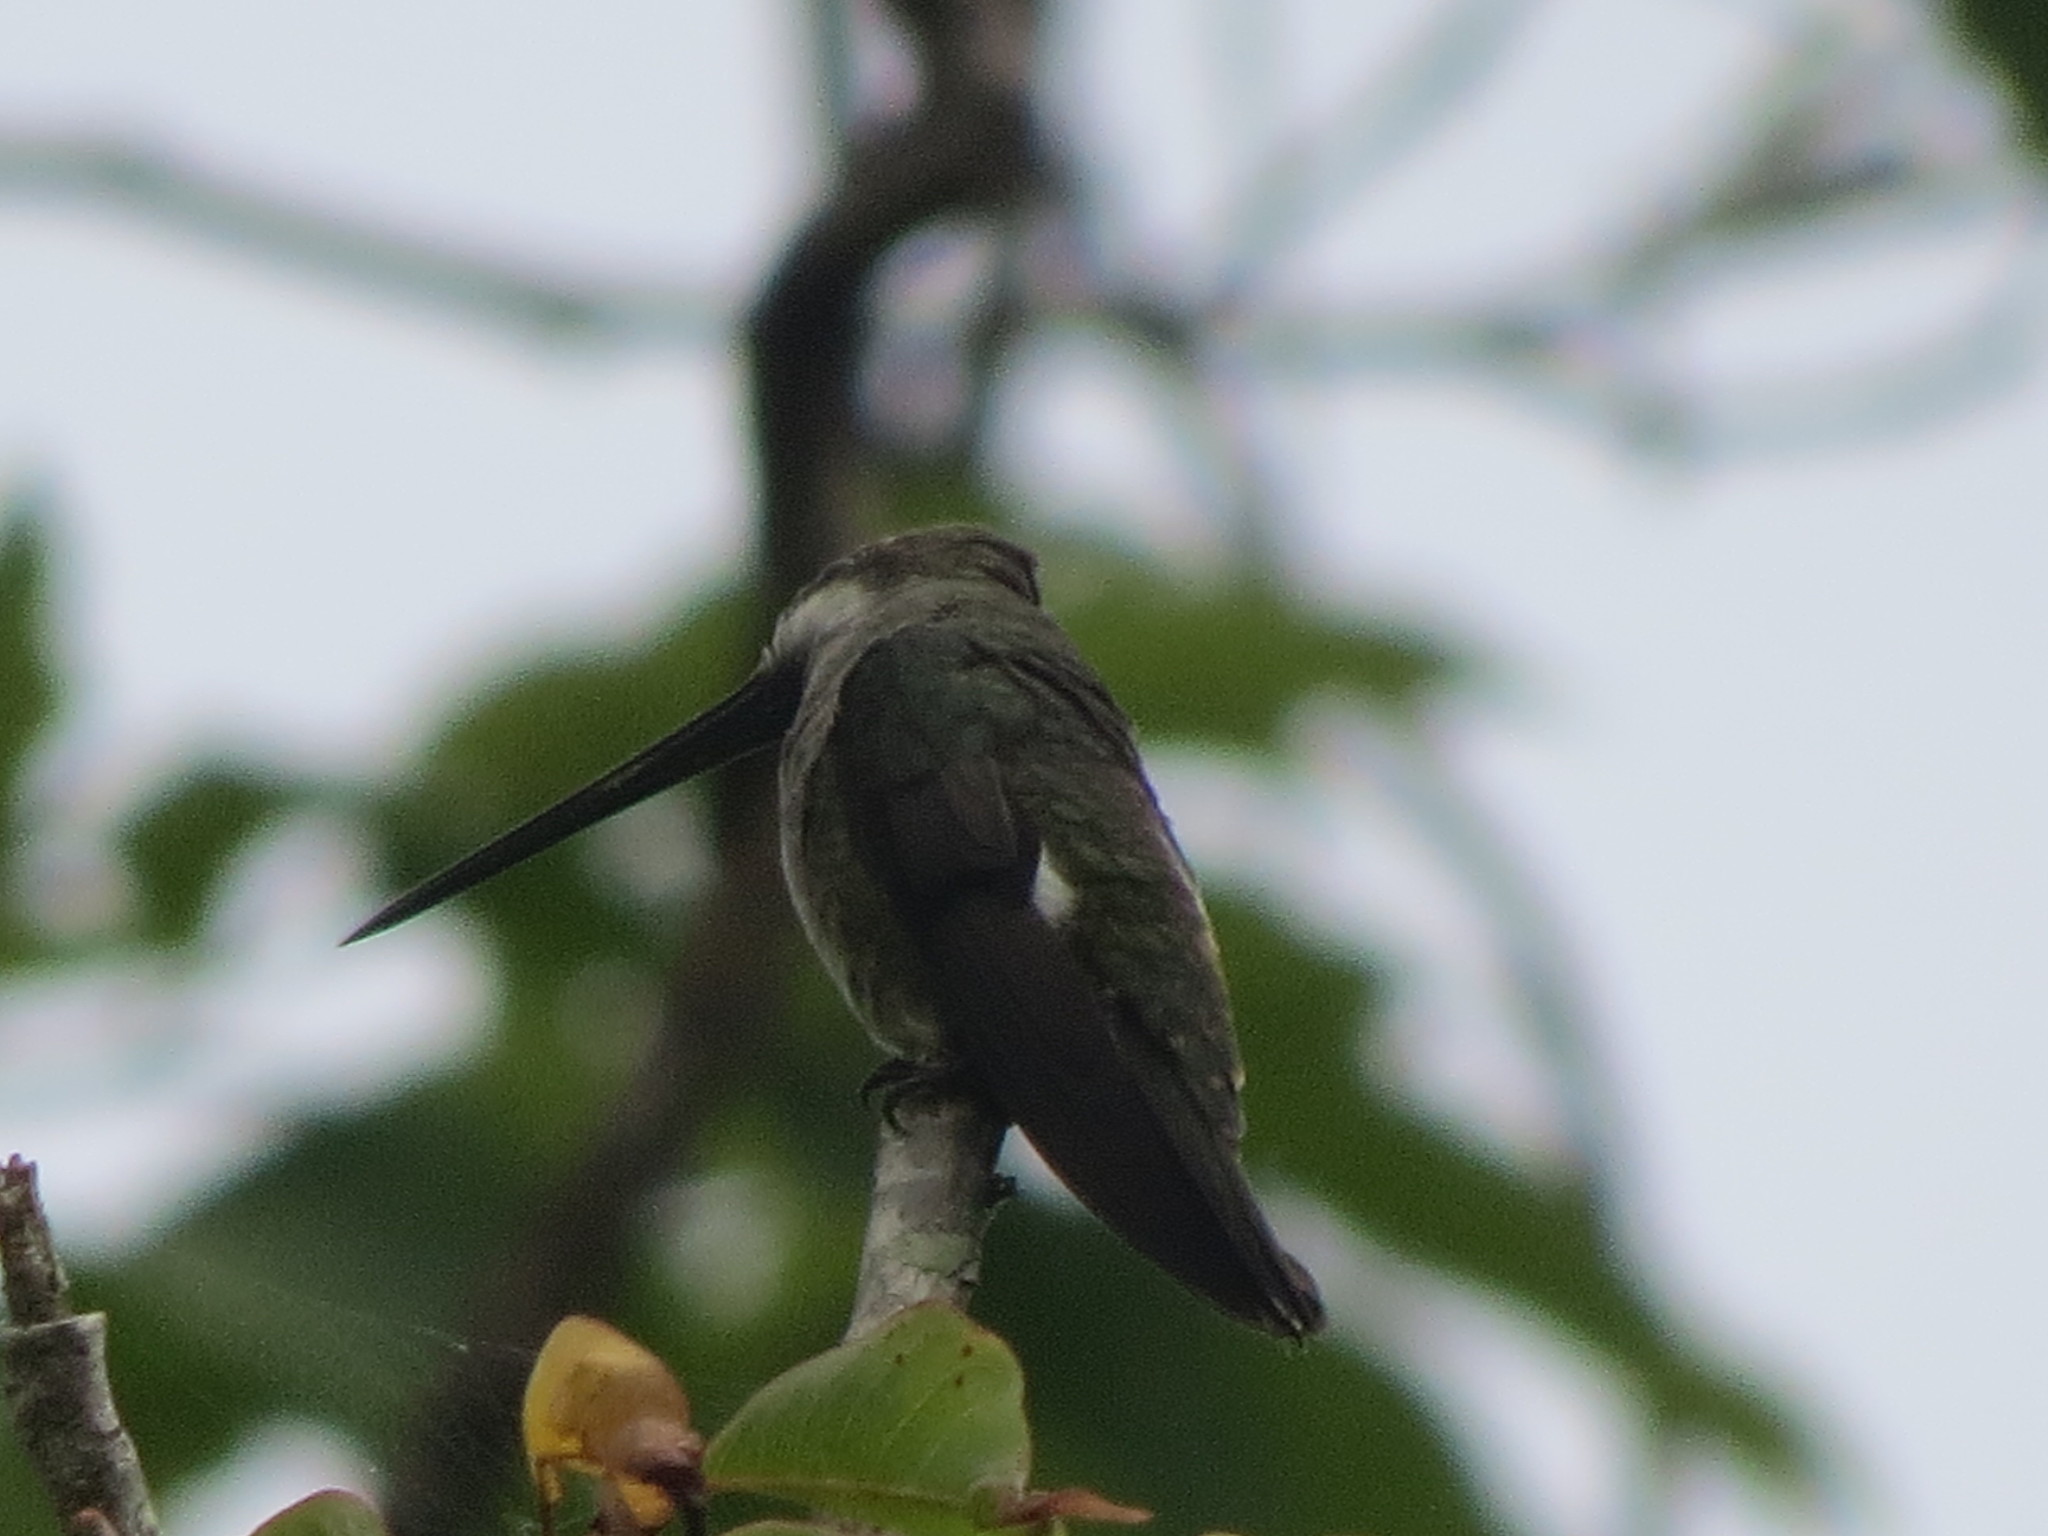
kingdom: Animalia
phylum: Chordata
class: Aves
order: Apodiformes
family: Trochilidae
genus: Heliomaster
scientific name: Heliomaster longirostris
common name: Long-billed starthroat
